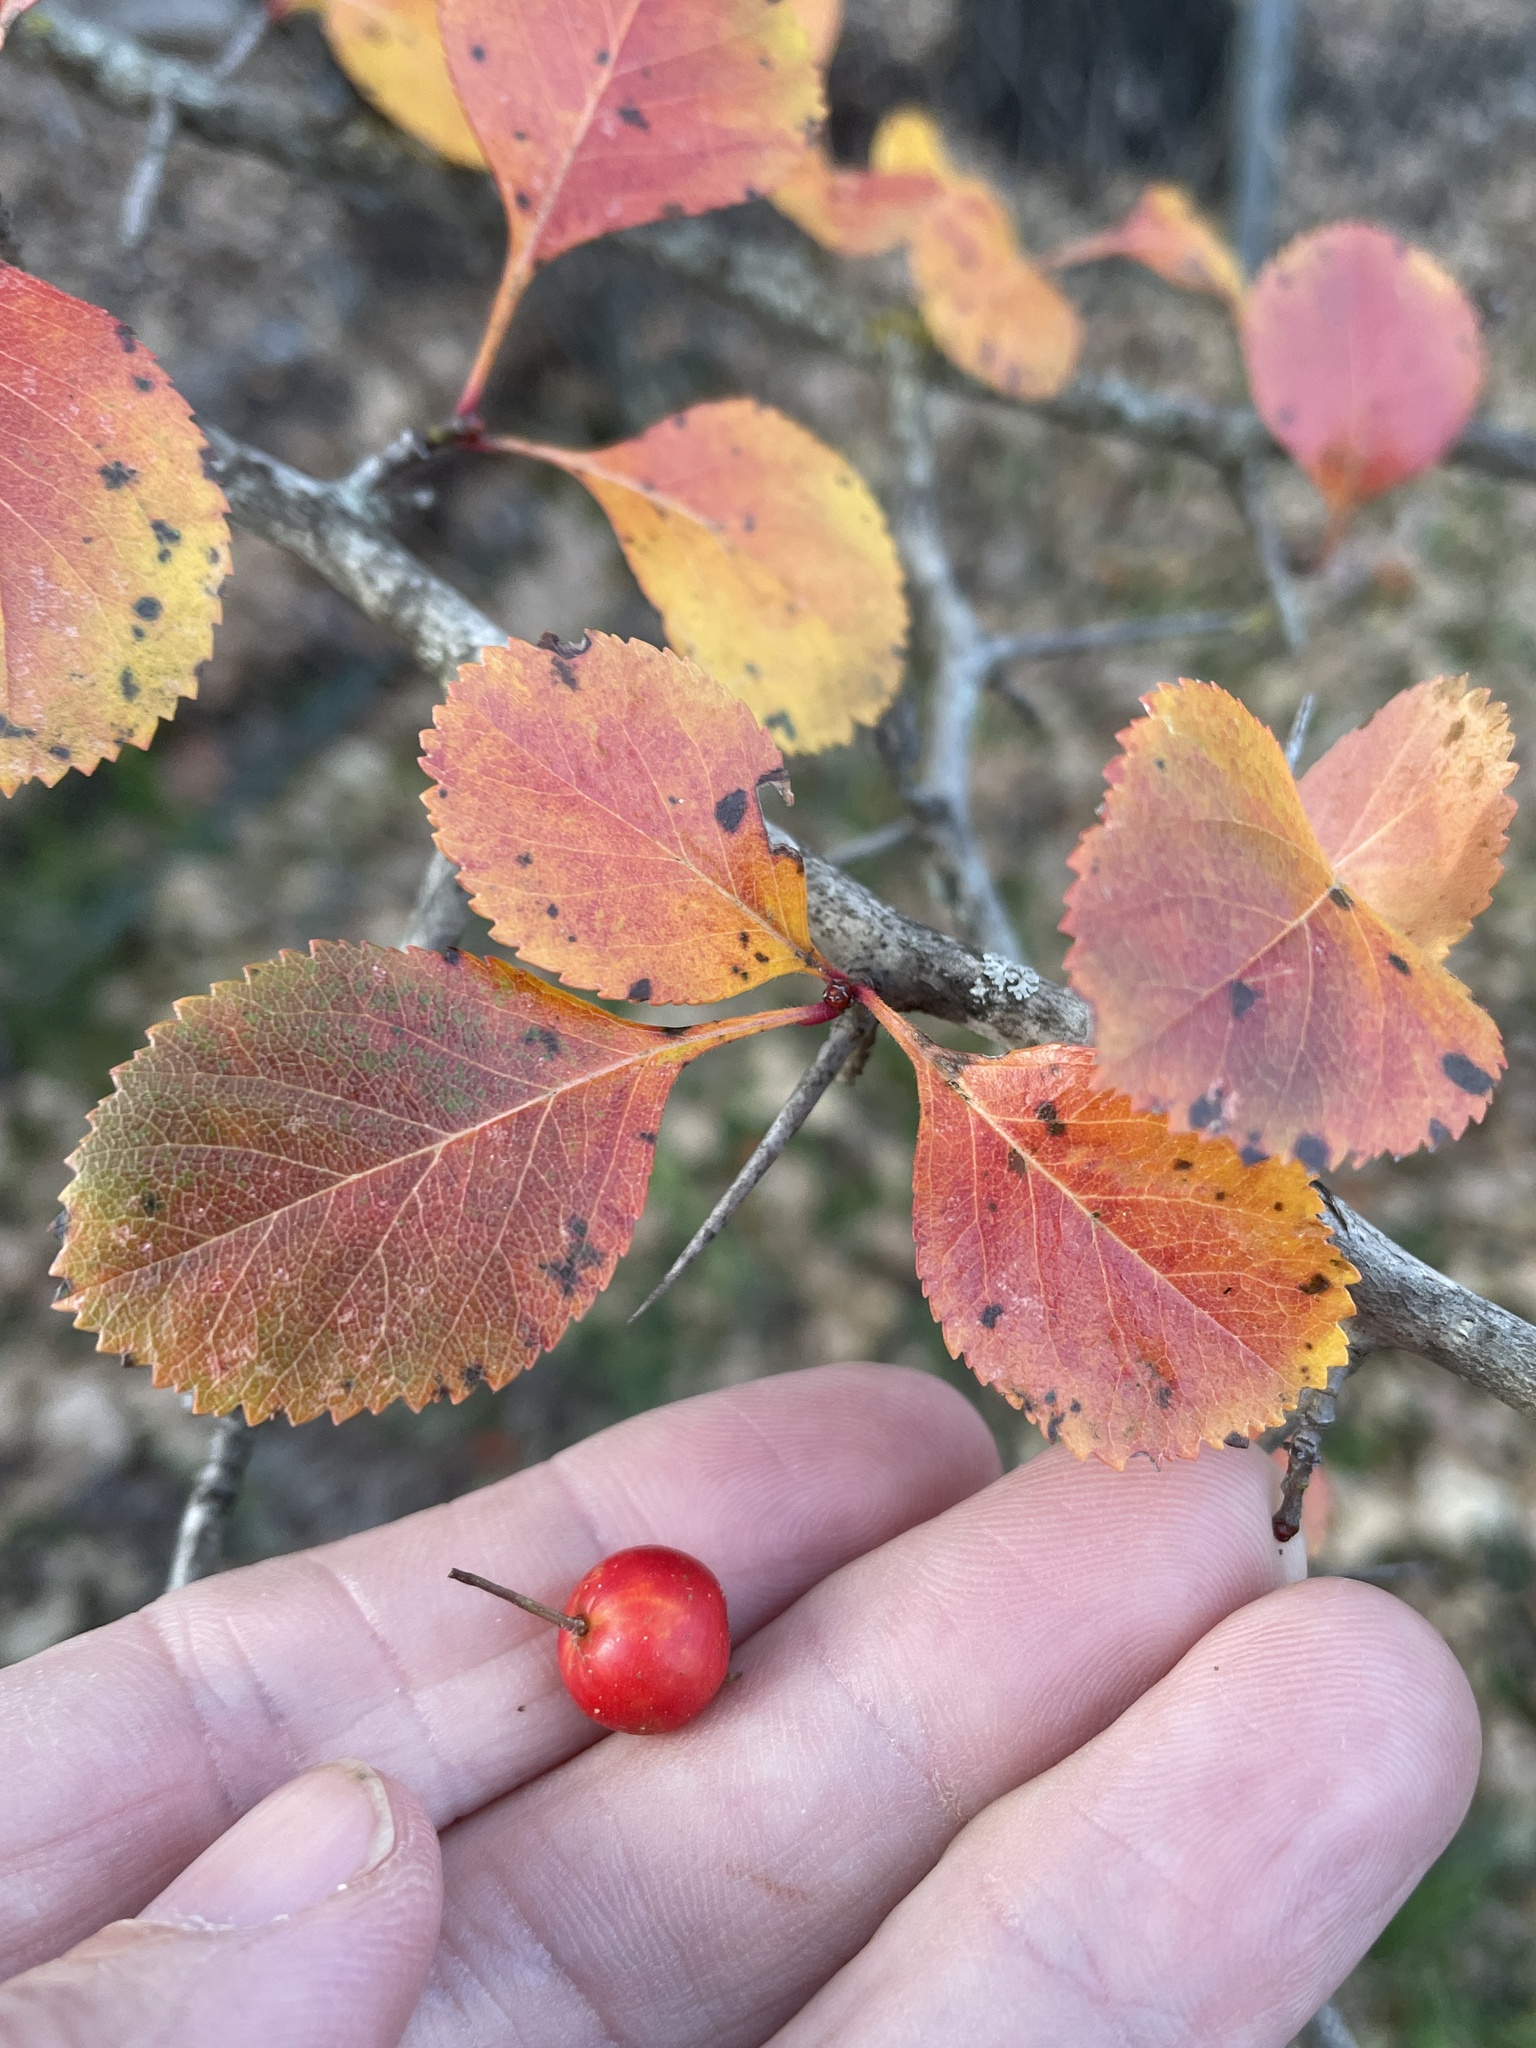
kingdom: Plantae
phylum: Tracheophyta
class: Magnoliopsida
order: Rosales
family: Rosaceae
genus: Crataegus
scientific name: Crataegus reverchonii
